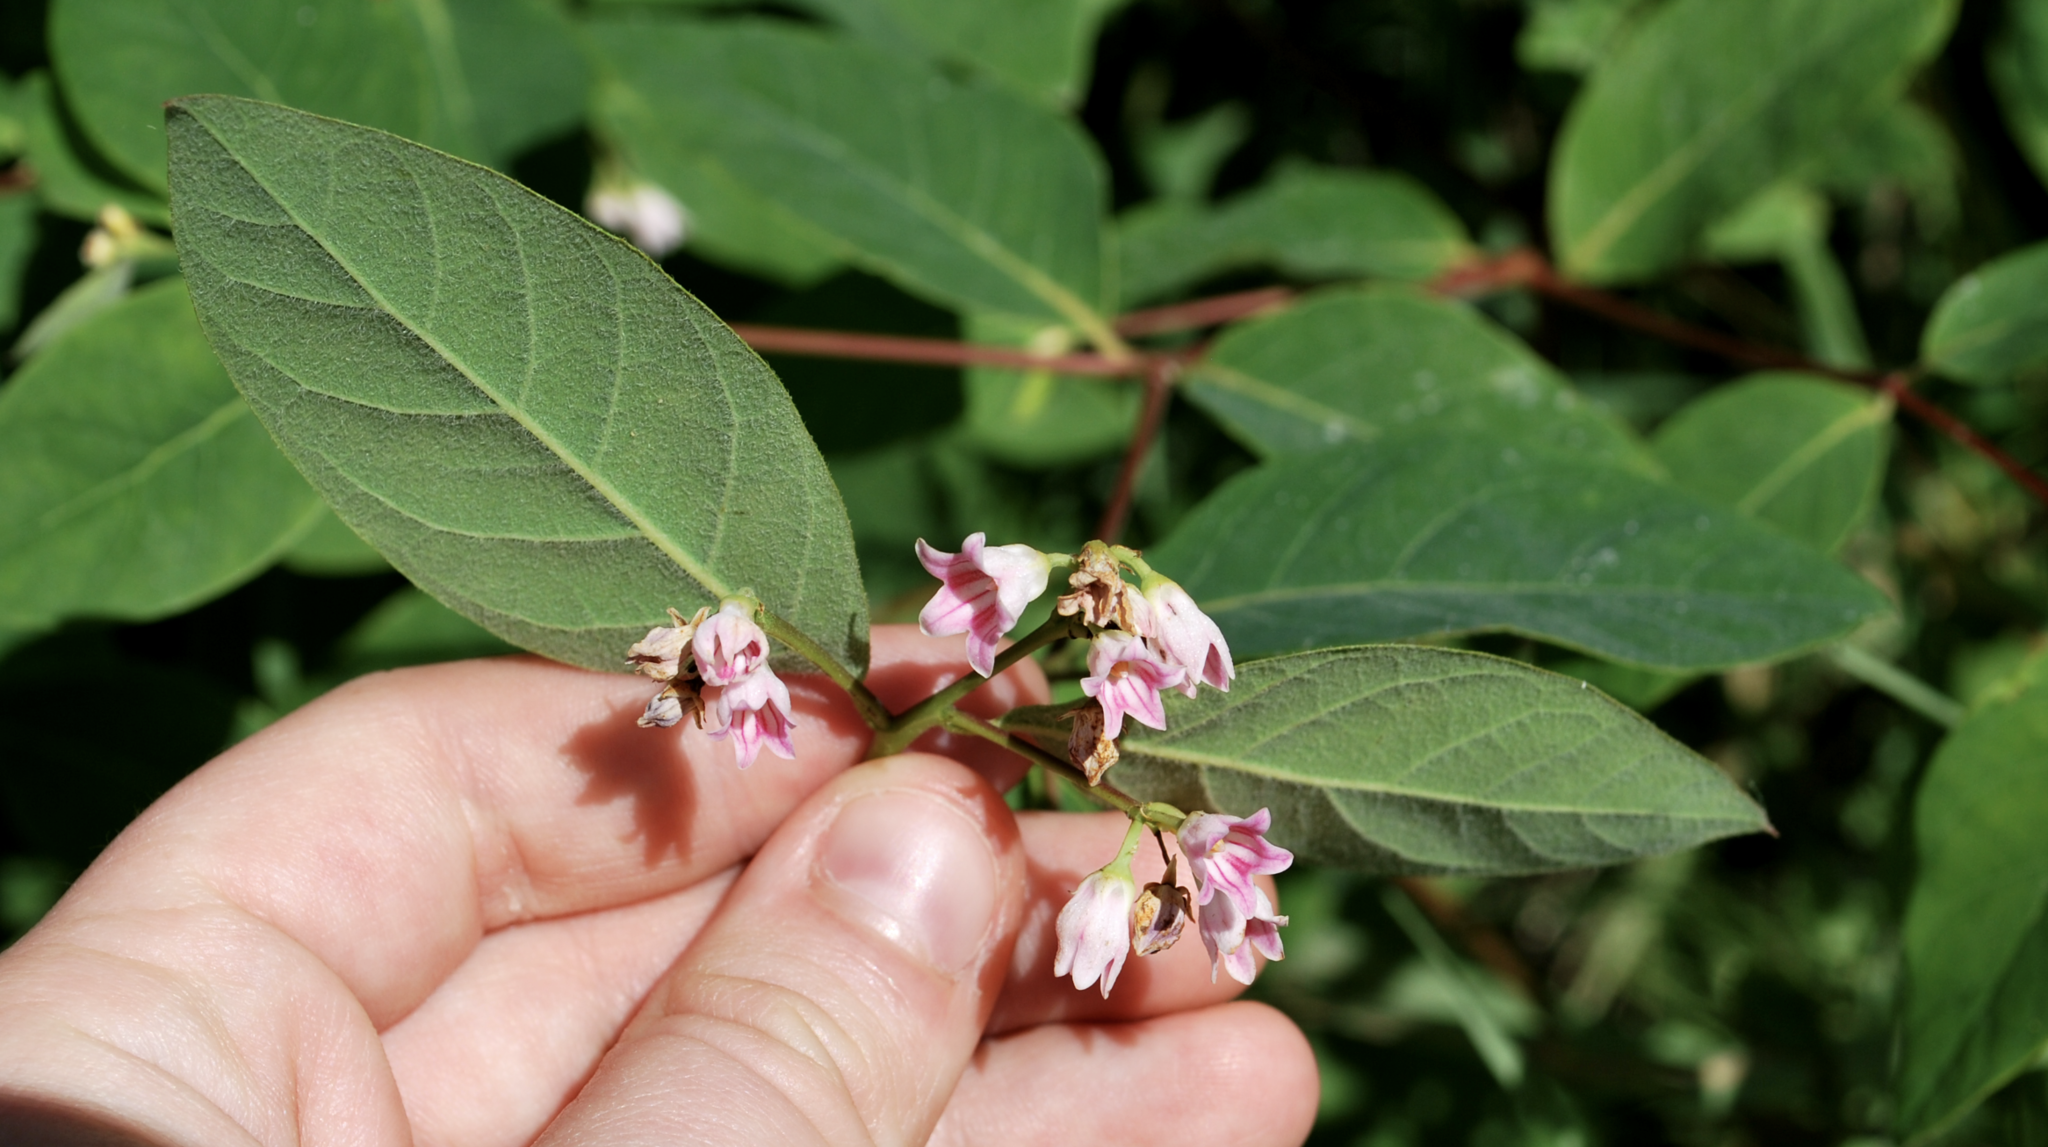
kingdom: Plantae
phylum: Tracheophyta
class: Magnoliopsida
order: Gentianales
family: Apocynaceae
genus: Apocynum
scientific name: Apocynum androsaemifolium
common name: Spreading dogbane
